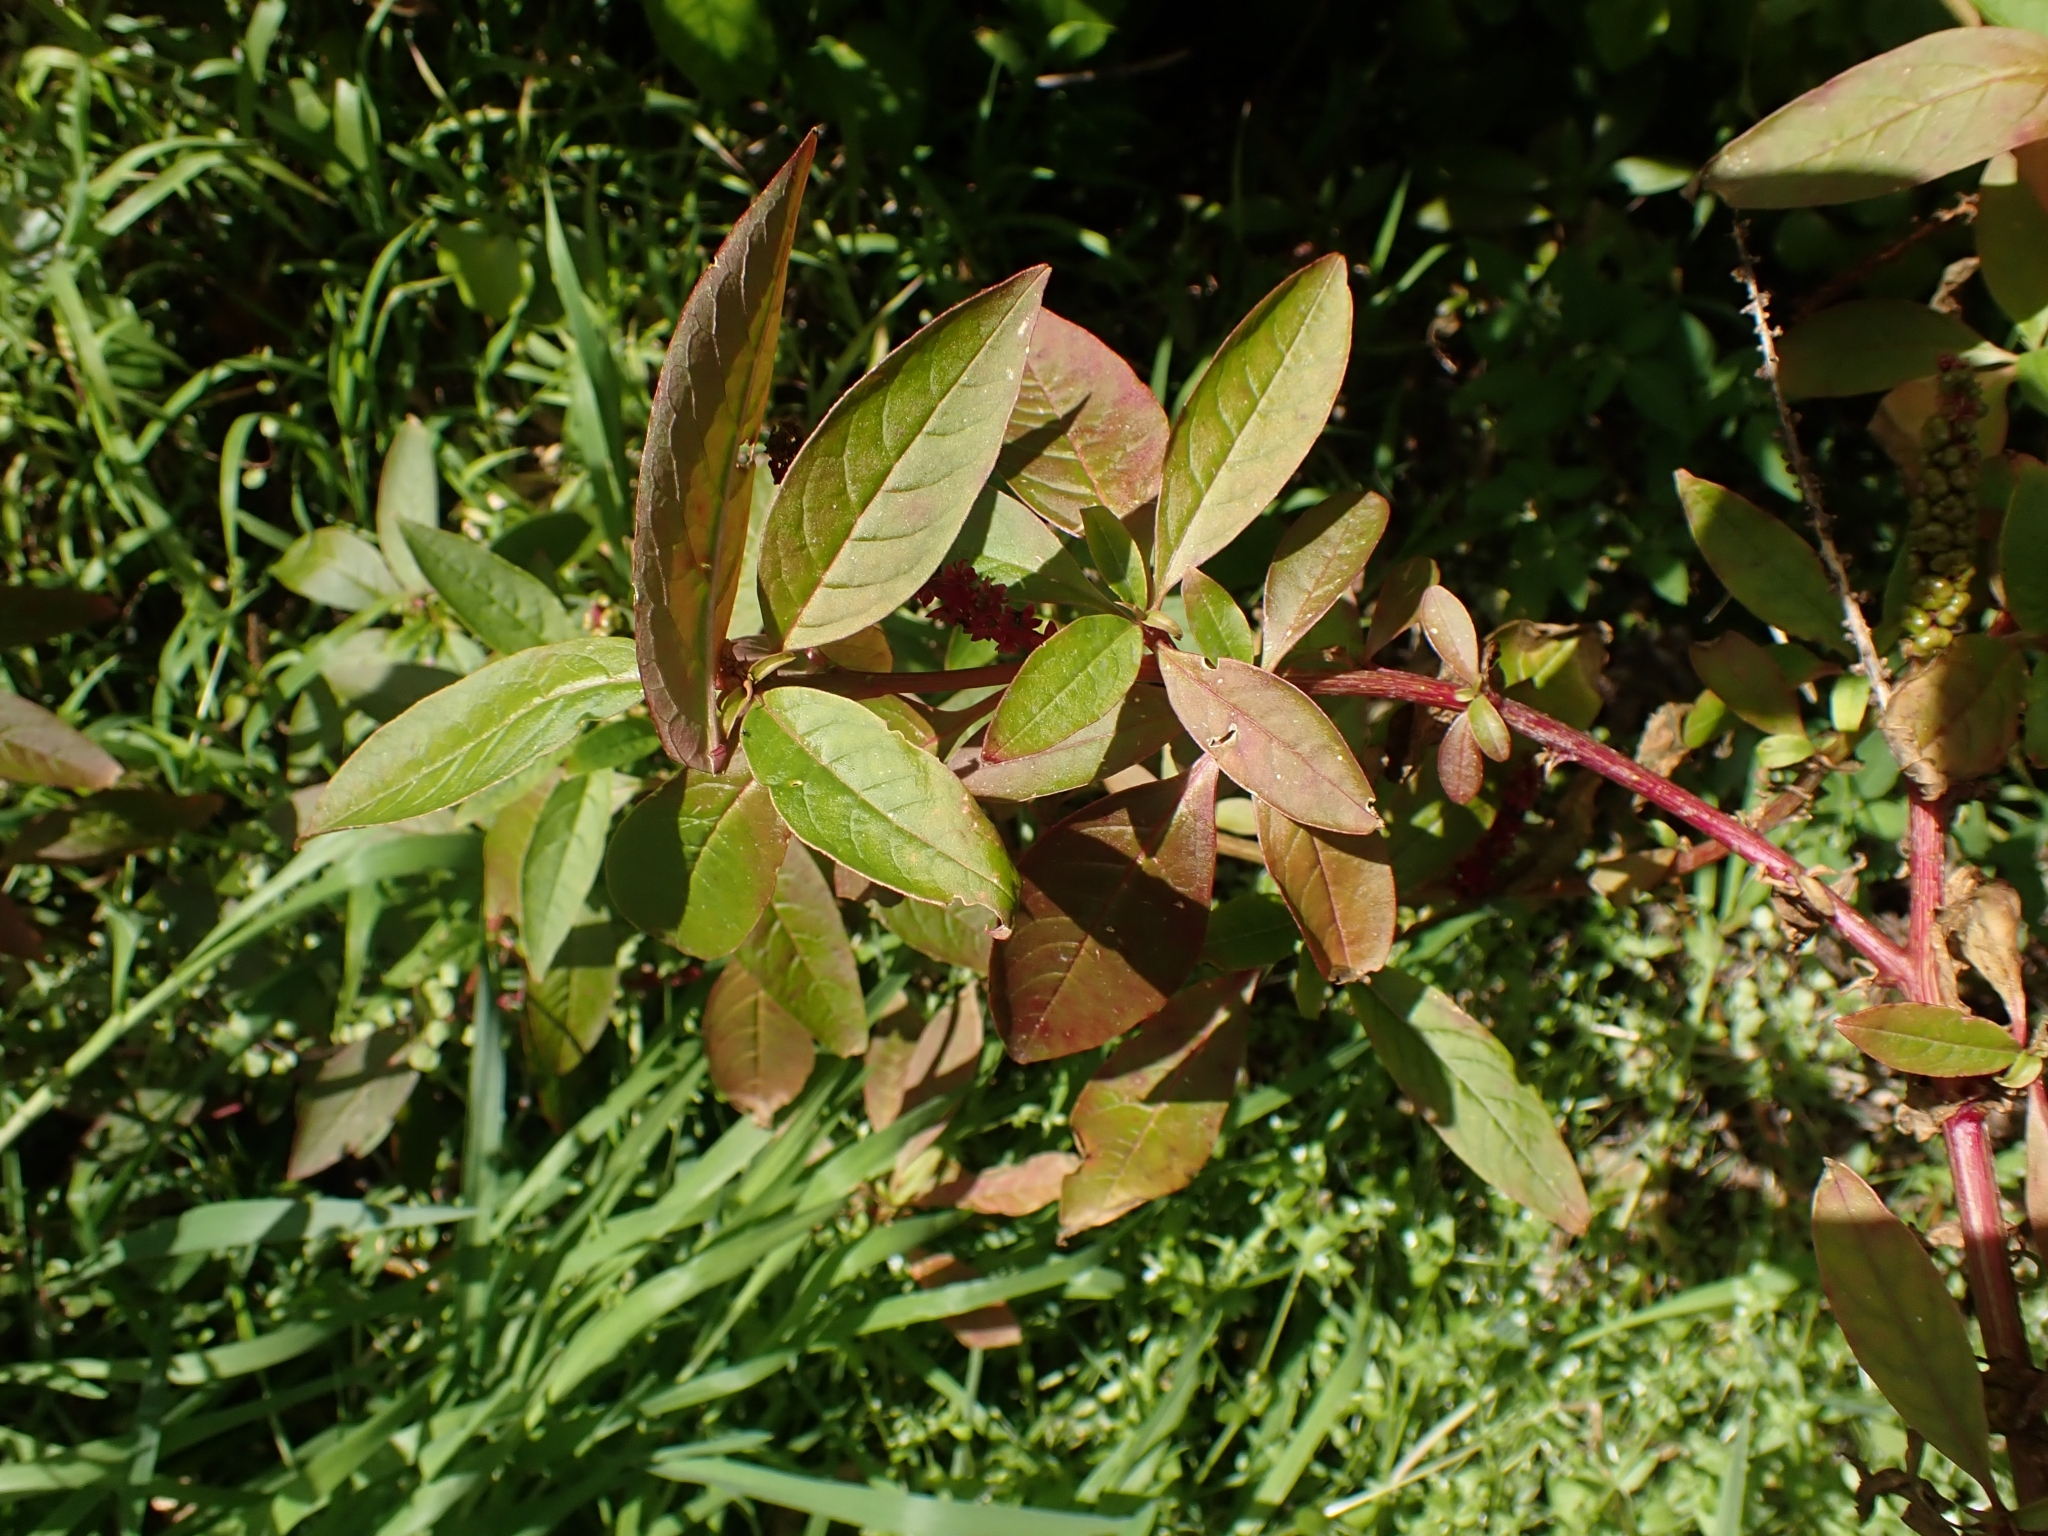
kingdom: Plantae
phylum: Tracheophyta
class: Magnoliopsida
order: Caryophyllales
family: Phytolaccaceae
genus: Phytolacca
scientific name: Phytolacca icosandra
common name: Button pokeweed
